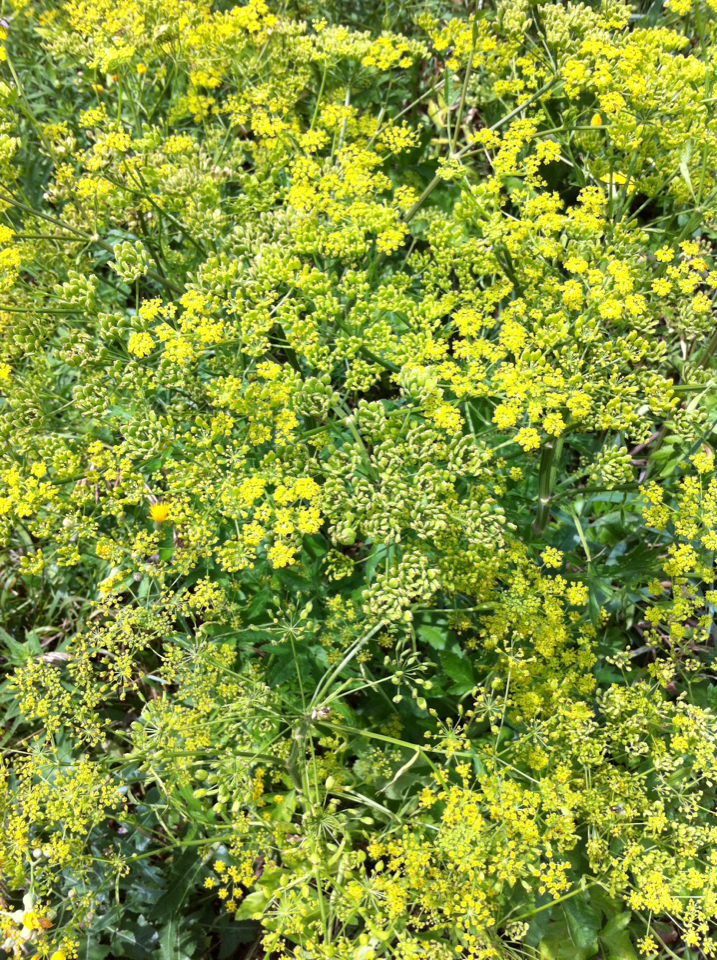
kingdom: Plantae
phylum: Tracheophyta
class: Magnoliopsida
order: Apiales
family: Apiaceae
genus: Pastinaca
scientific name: Pastinaca sativa
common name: Wild parsnip
